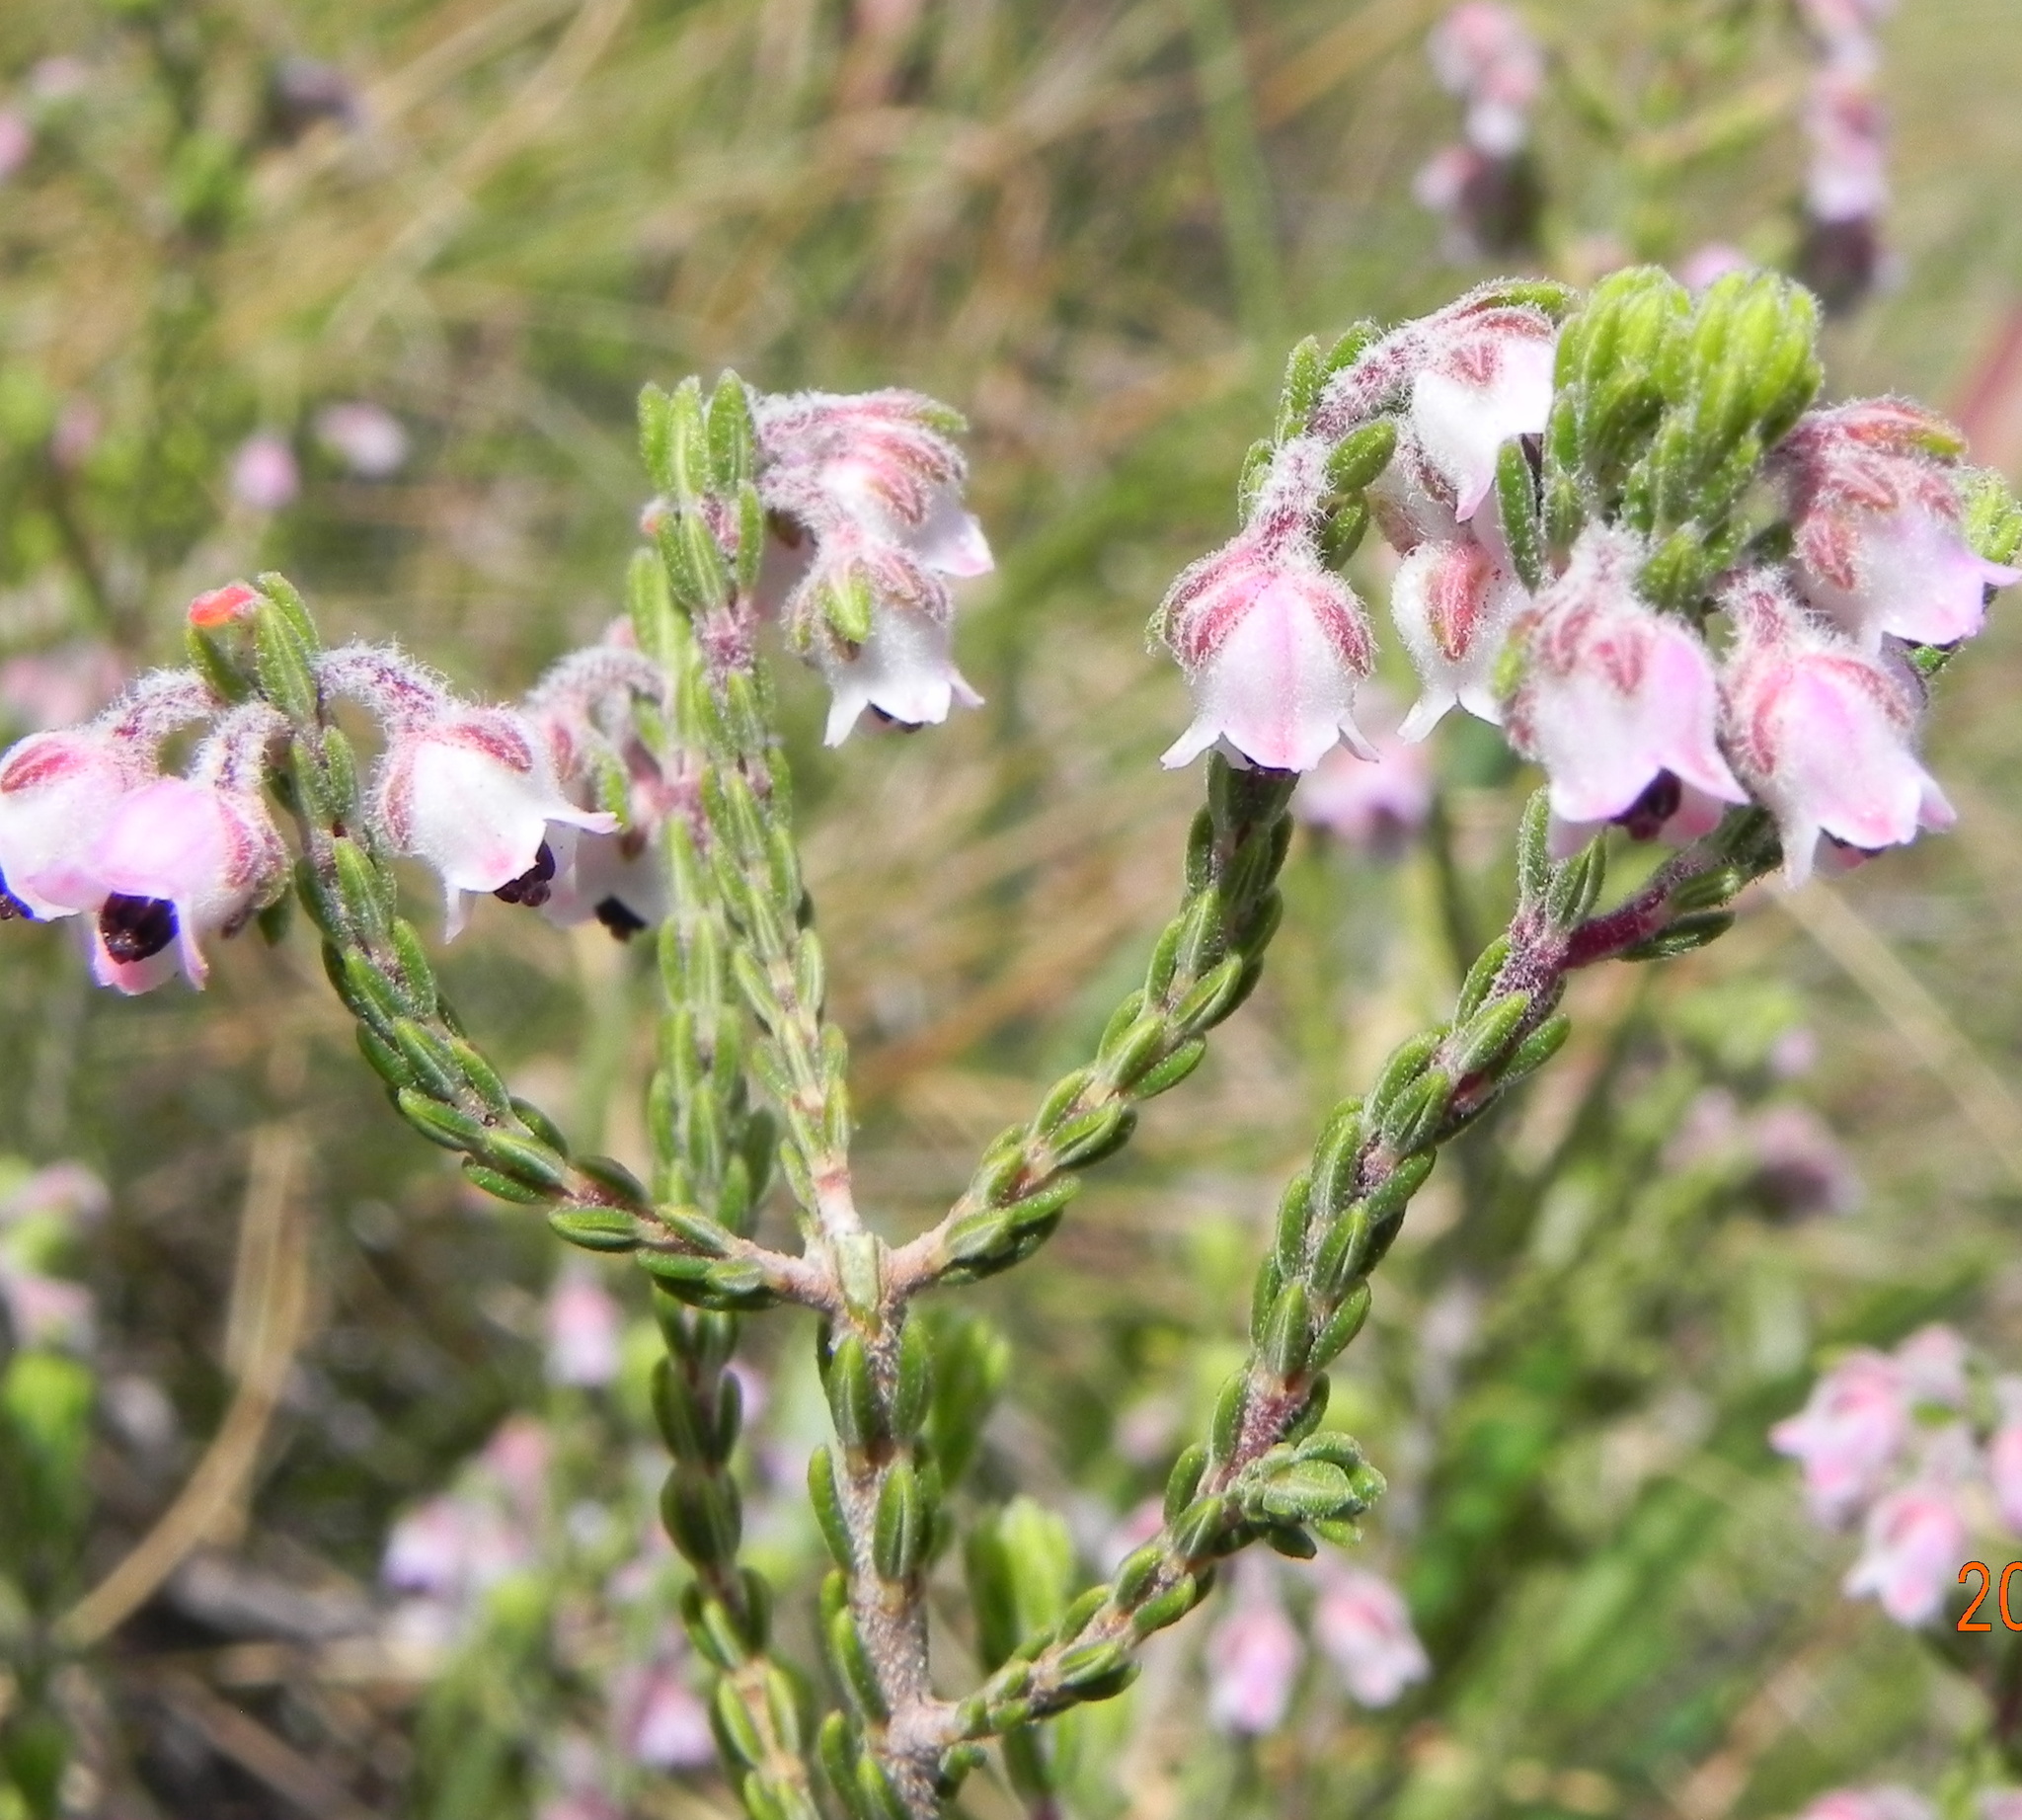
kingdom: Plantae
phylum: Tracheophyta
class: Magnoliopsida
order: Ericales
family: Ericaceae
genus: Erica
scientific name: Erica algida
